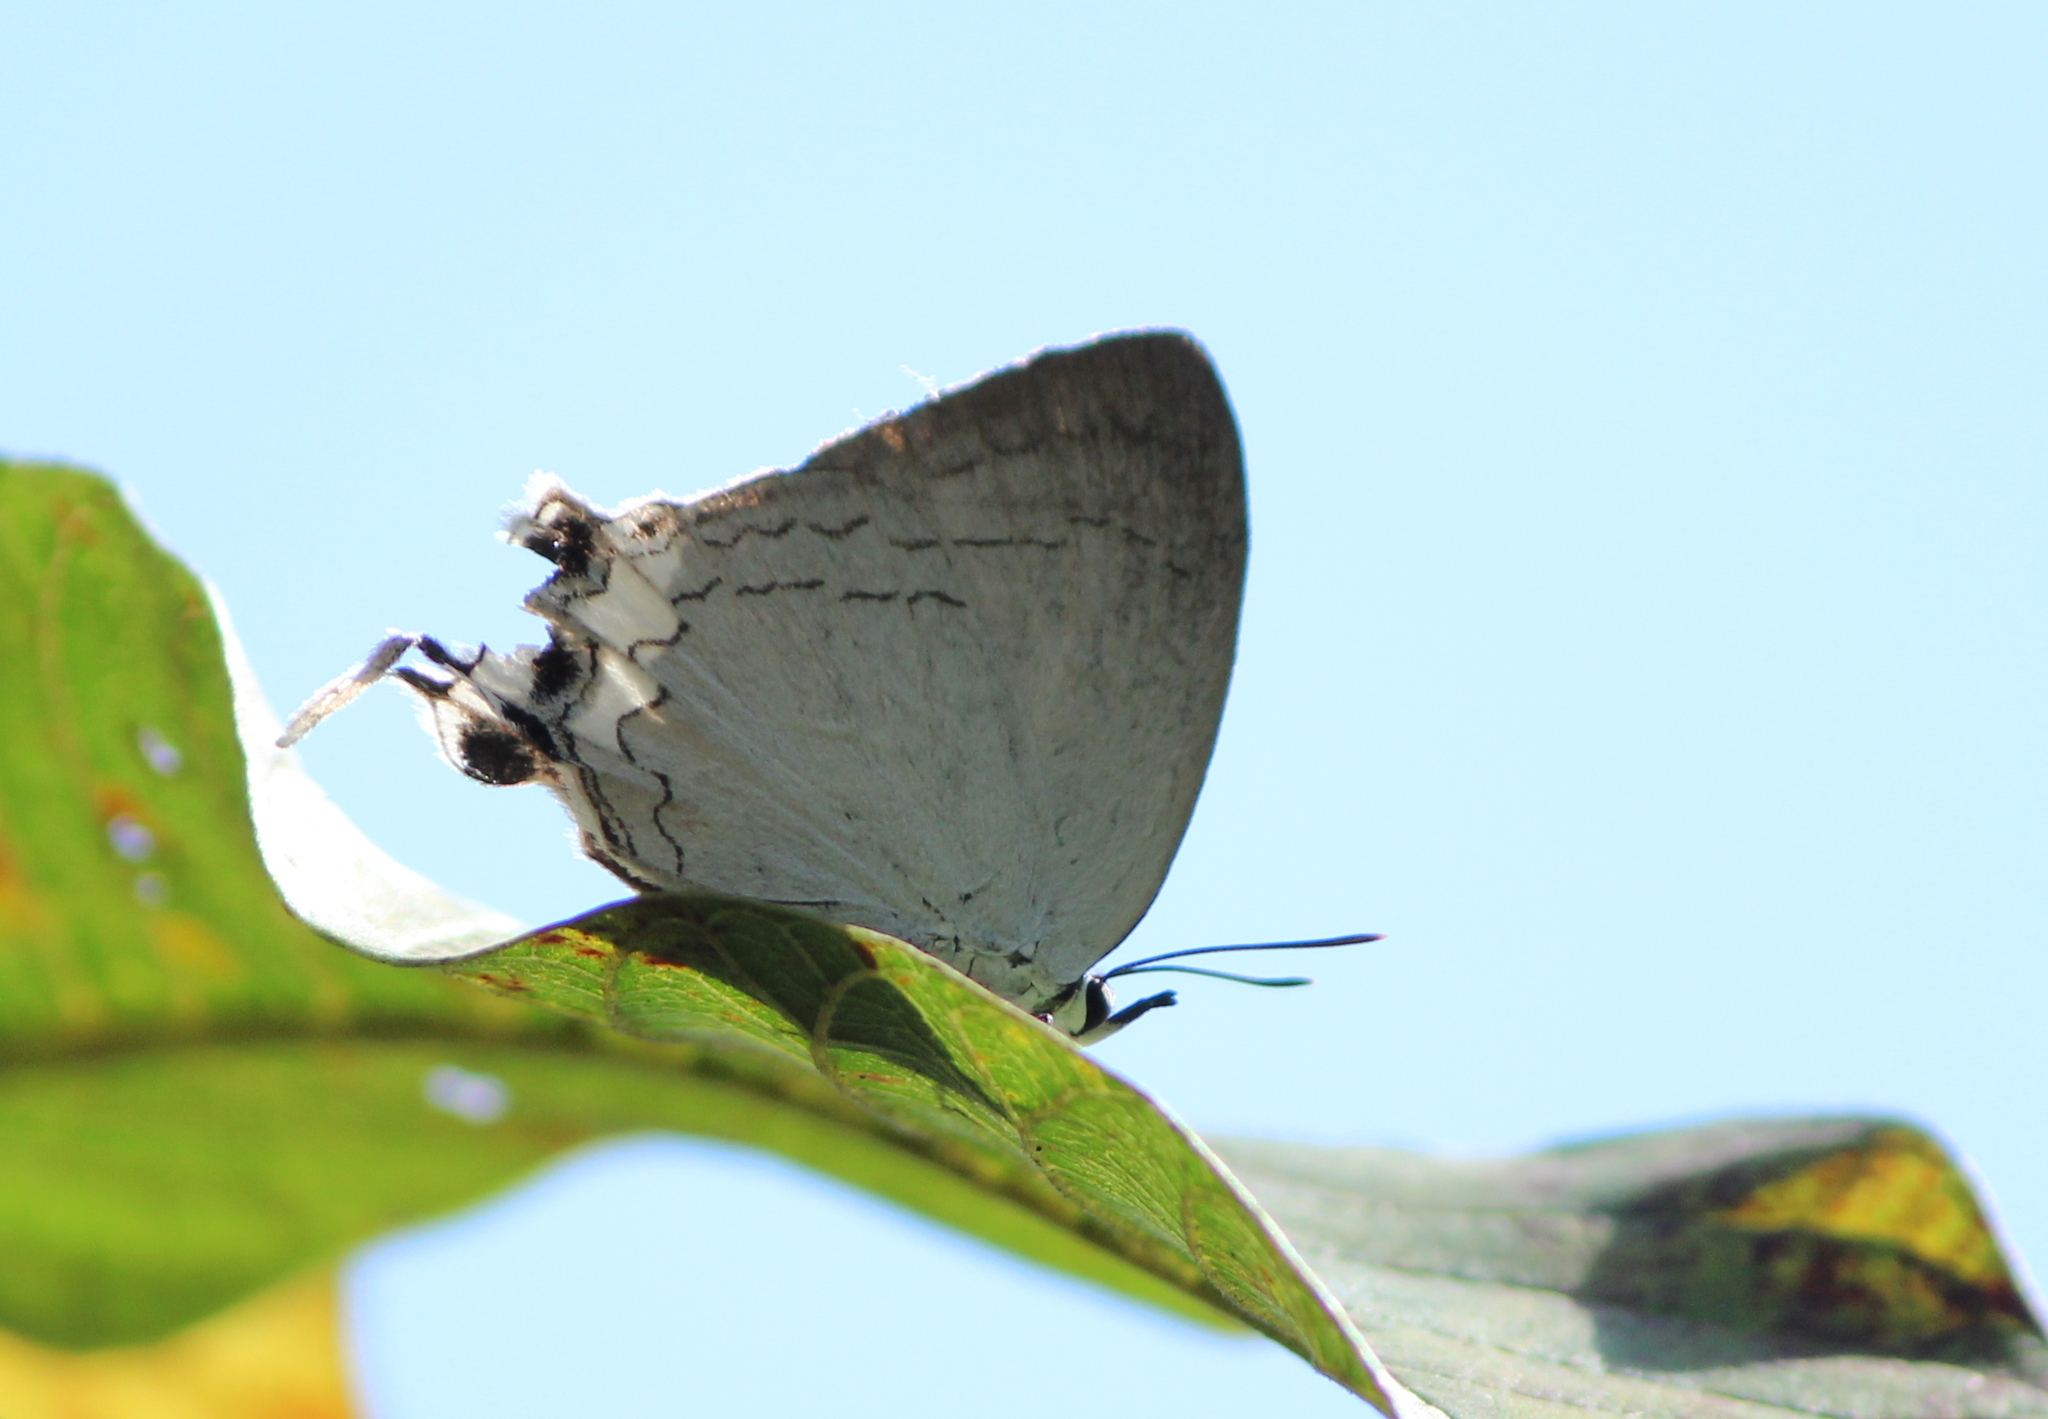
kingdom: Animalia
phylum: Arthropoda
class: Insecta
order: Lepidoptera
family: Lycaenidae
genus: Cheritra
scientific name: Cheritra freja
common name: Common imperial
